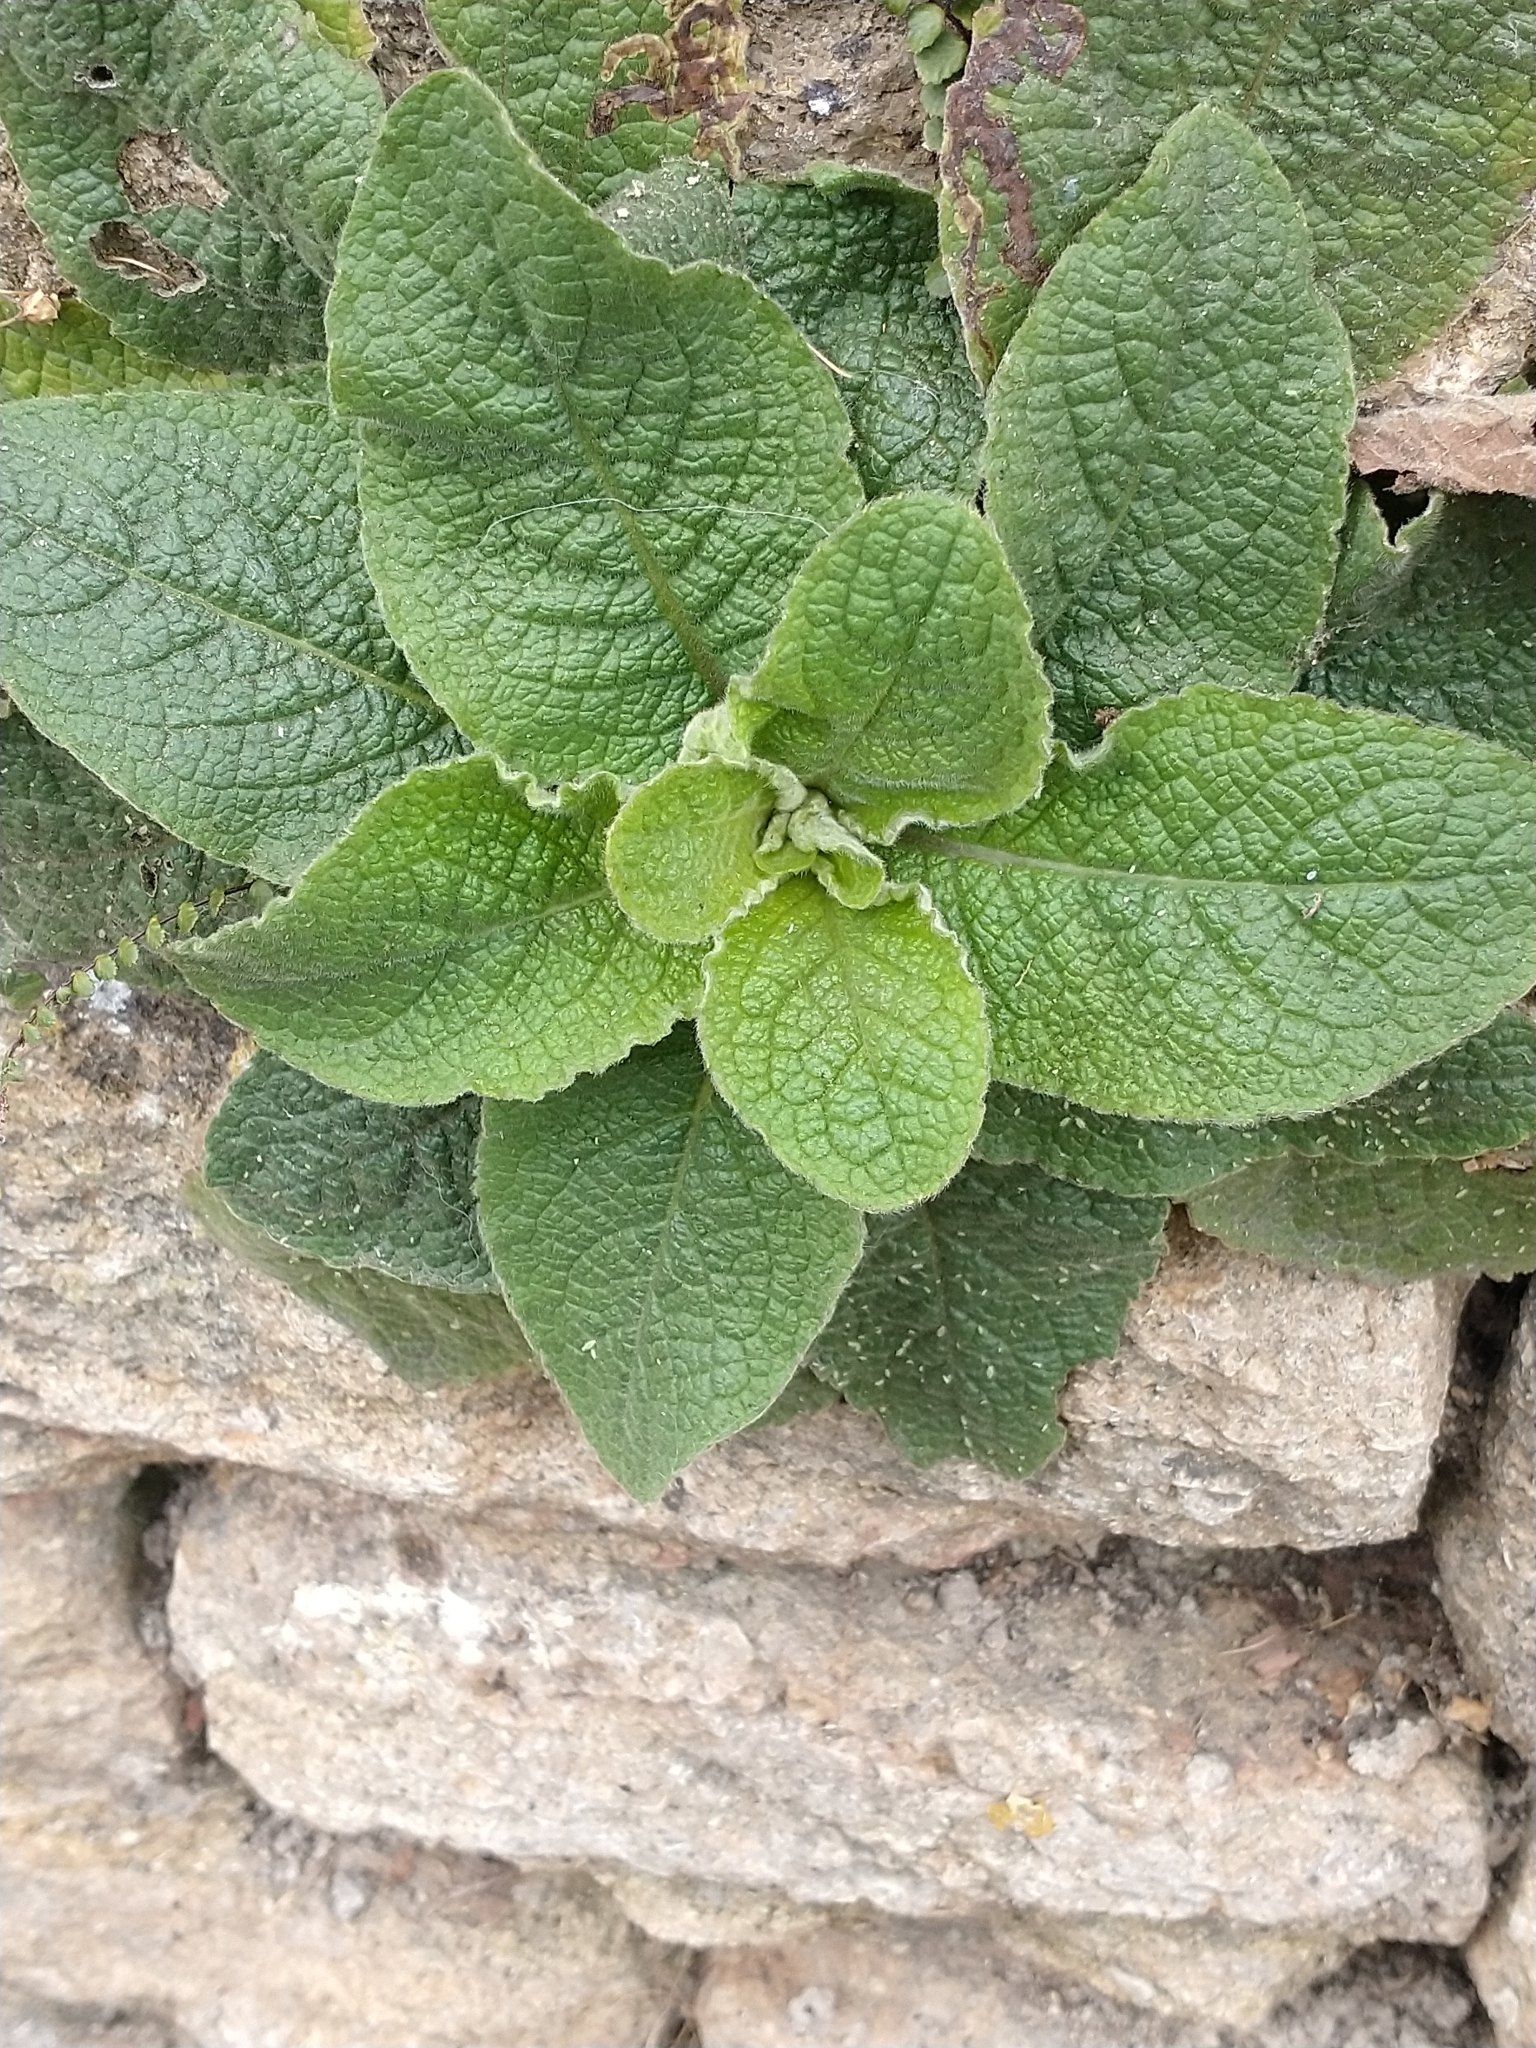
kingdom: Plantae
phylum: Tracheophyta
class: Magnoliopsida
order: Asterales
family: Asteraceae
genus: Pentanema
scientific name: Pentanema squarrosum
